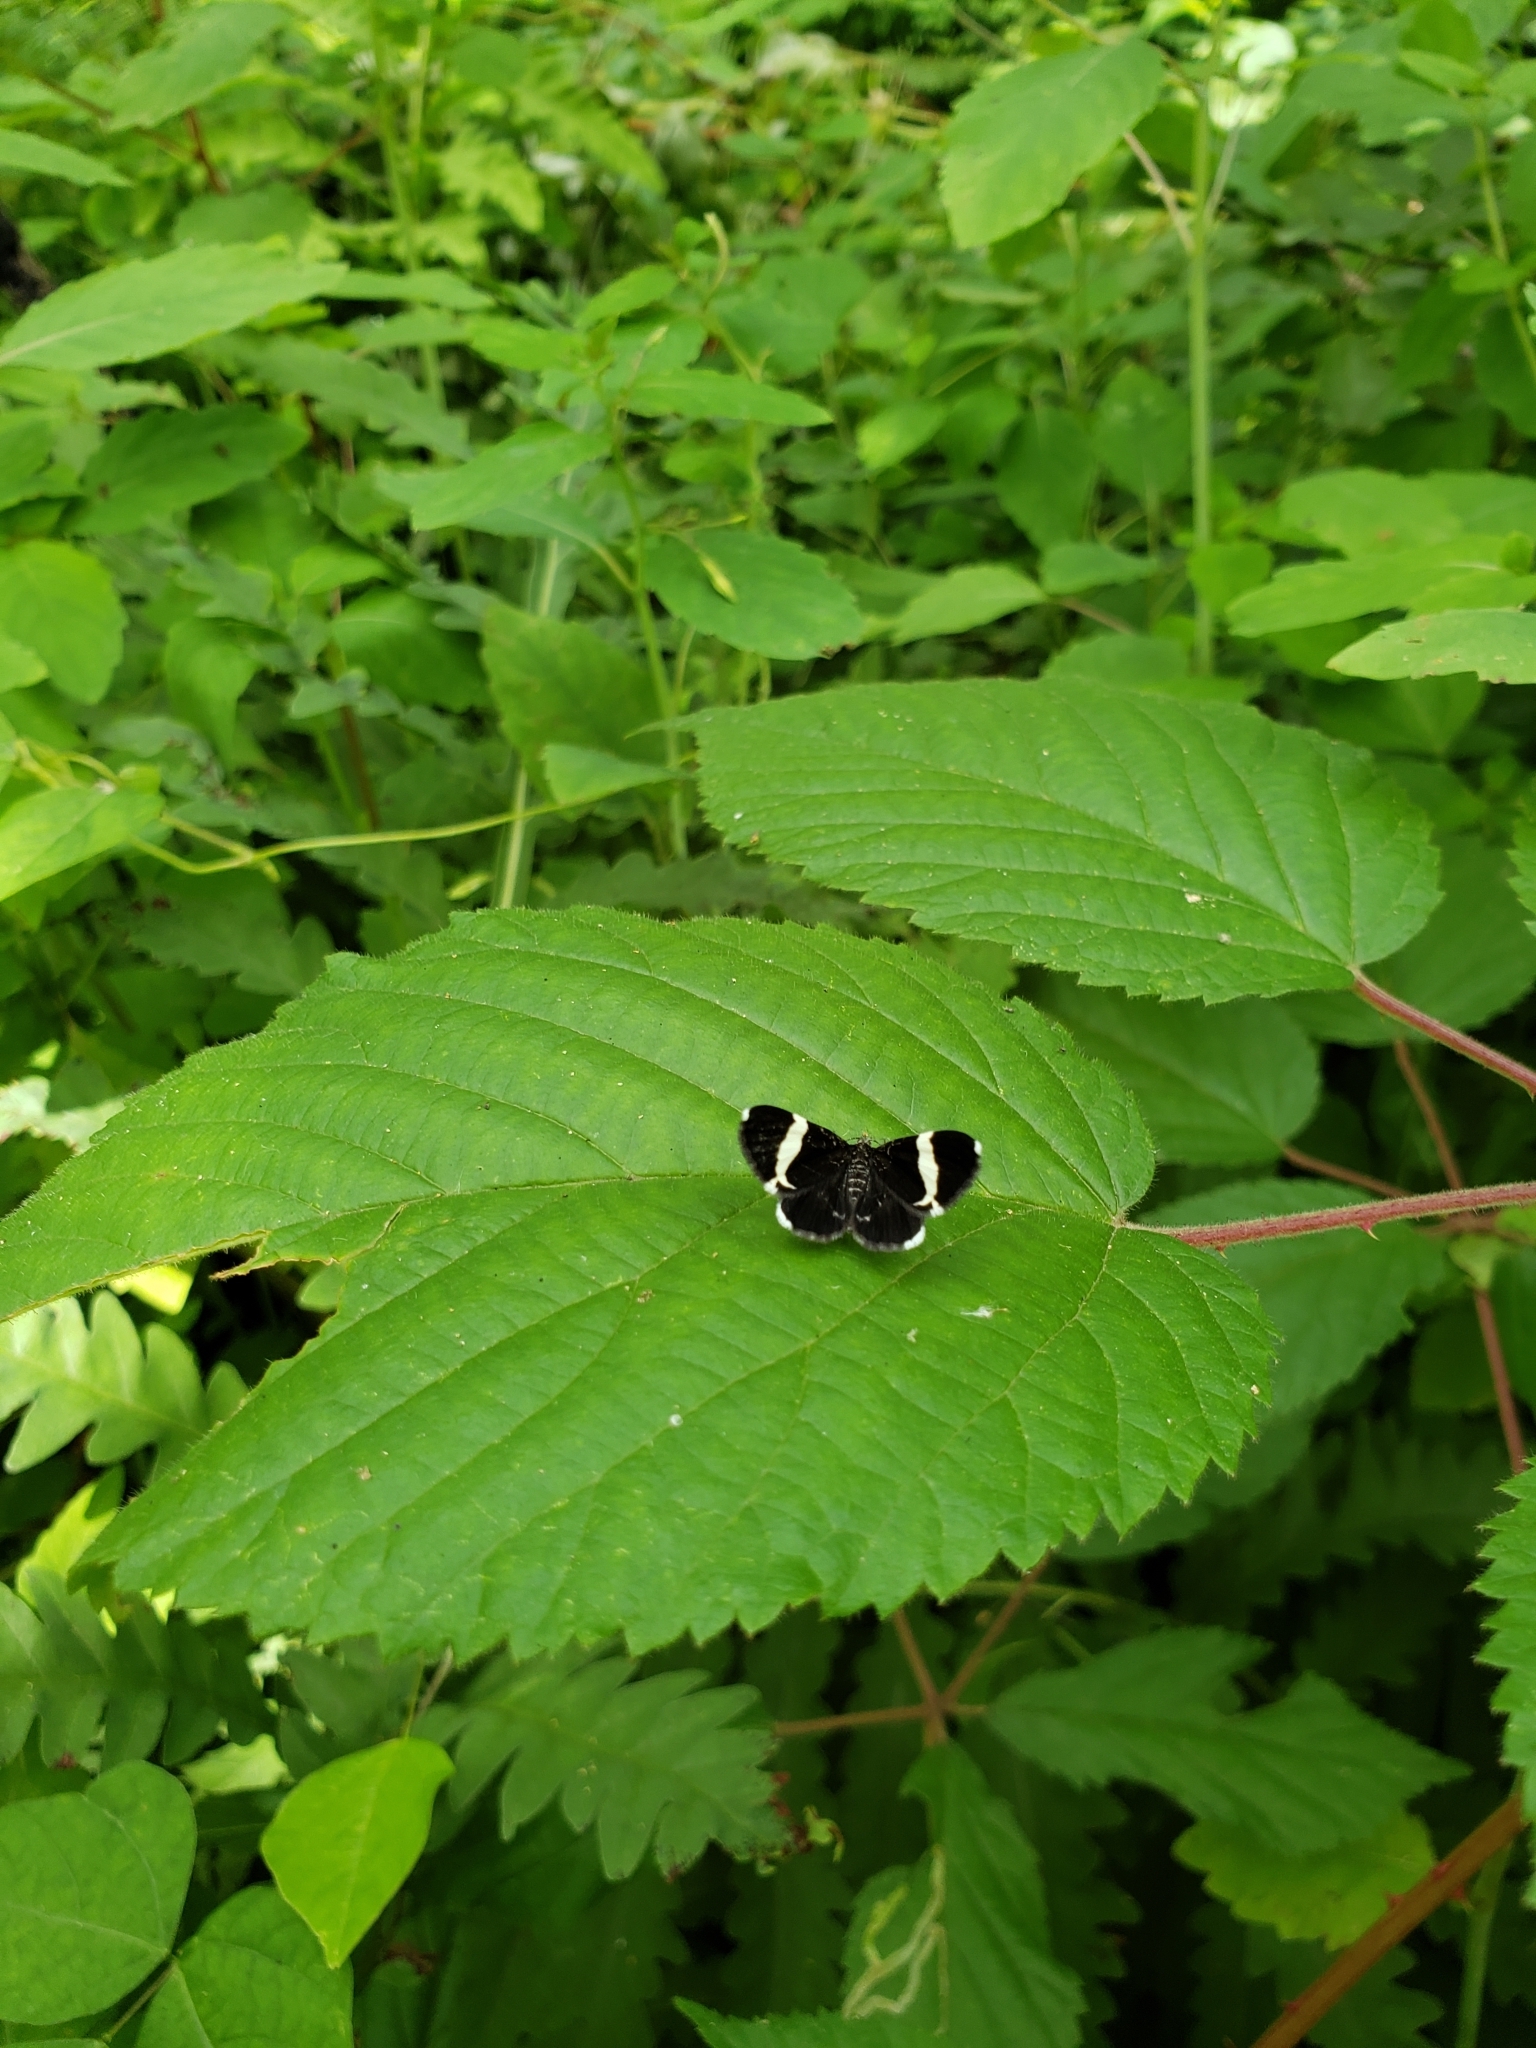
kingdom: Animalia
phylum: Arthropoda
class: Insecta
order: Lepidoptera
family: Geometridae
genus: Trichodezia
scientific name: Trichodezia albovittata
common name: White striped black
